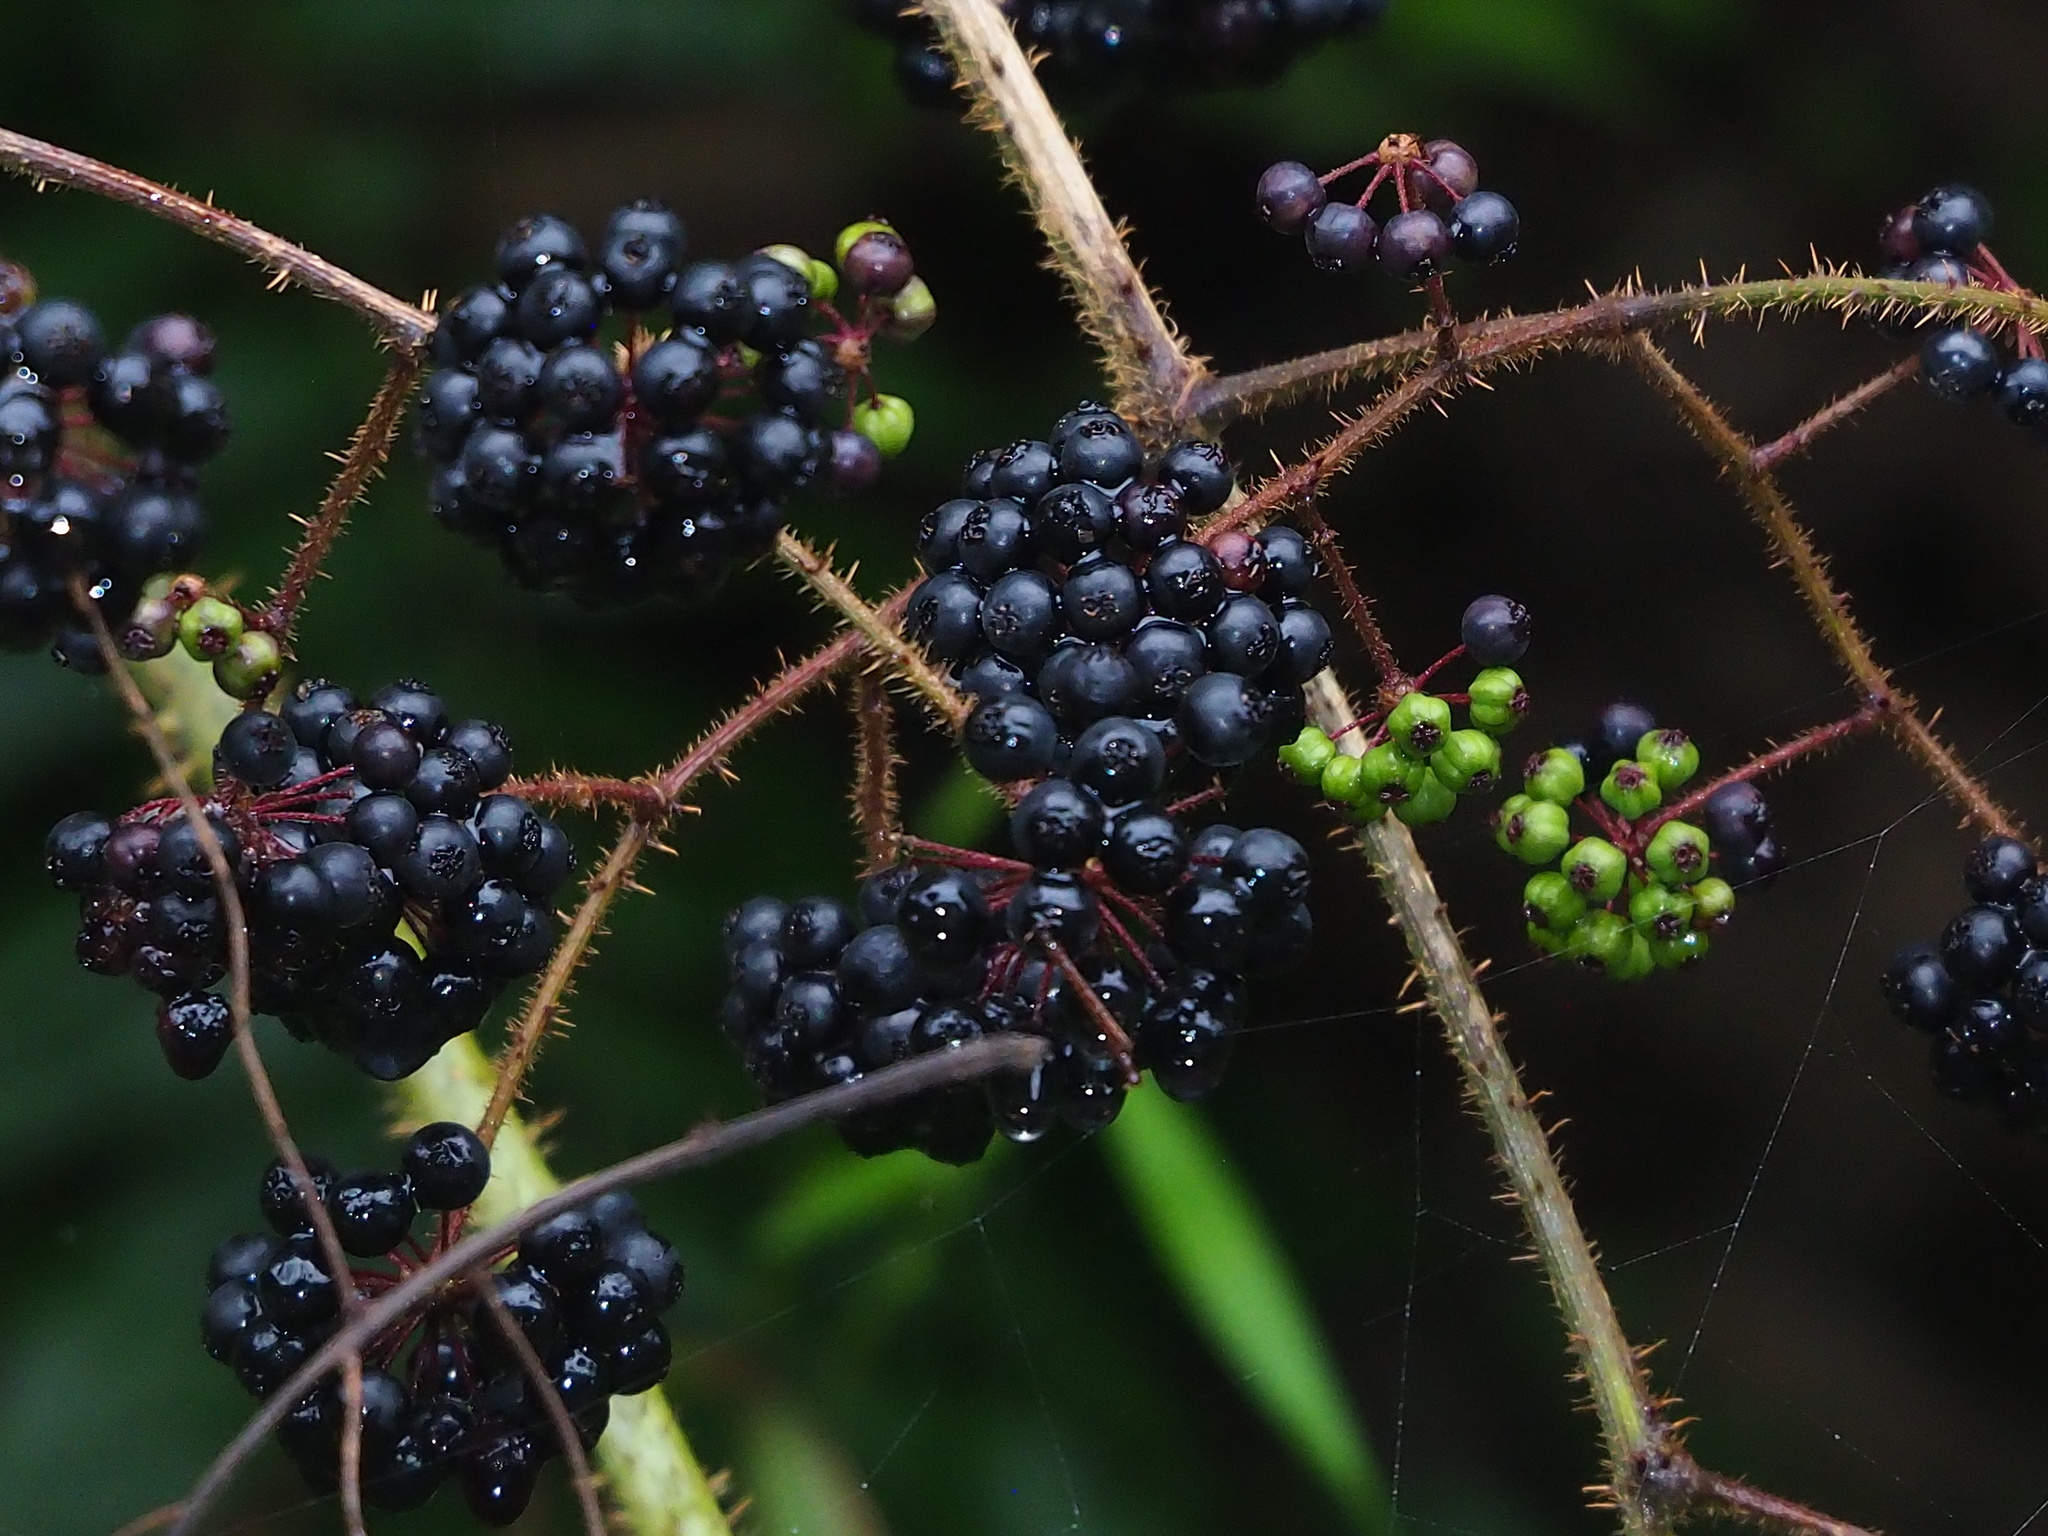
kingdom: Plantae
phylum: Tracheophyta
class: Magnoliopsida
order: Apiales
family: Araliaceae
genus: Aralia
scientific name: Aralia armata
